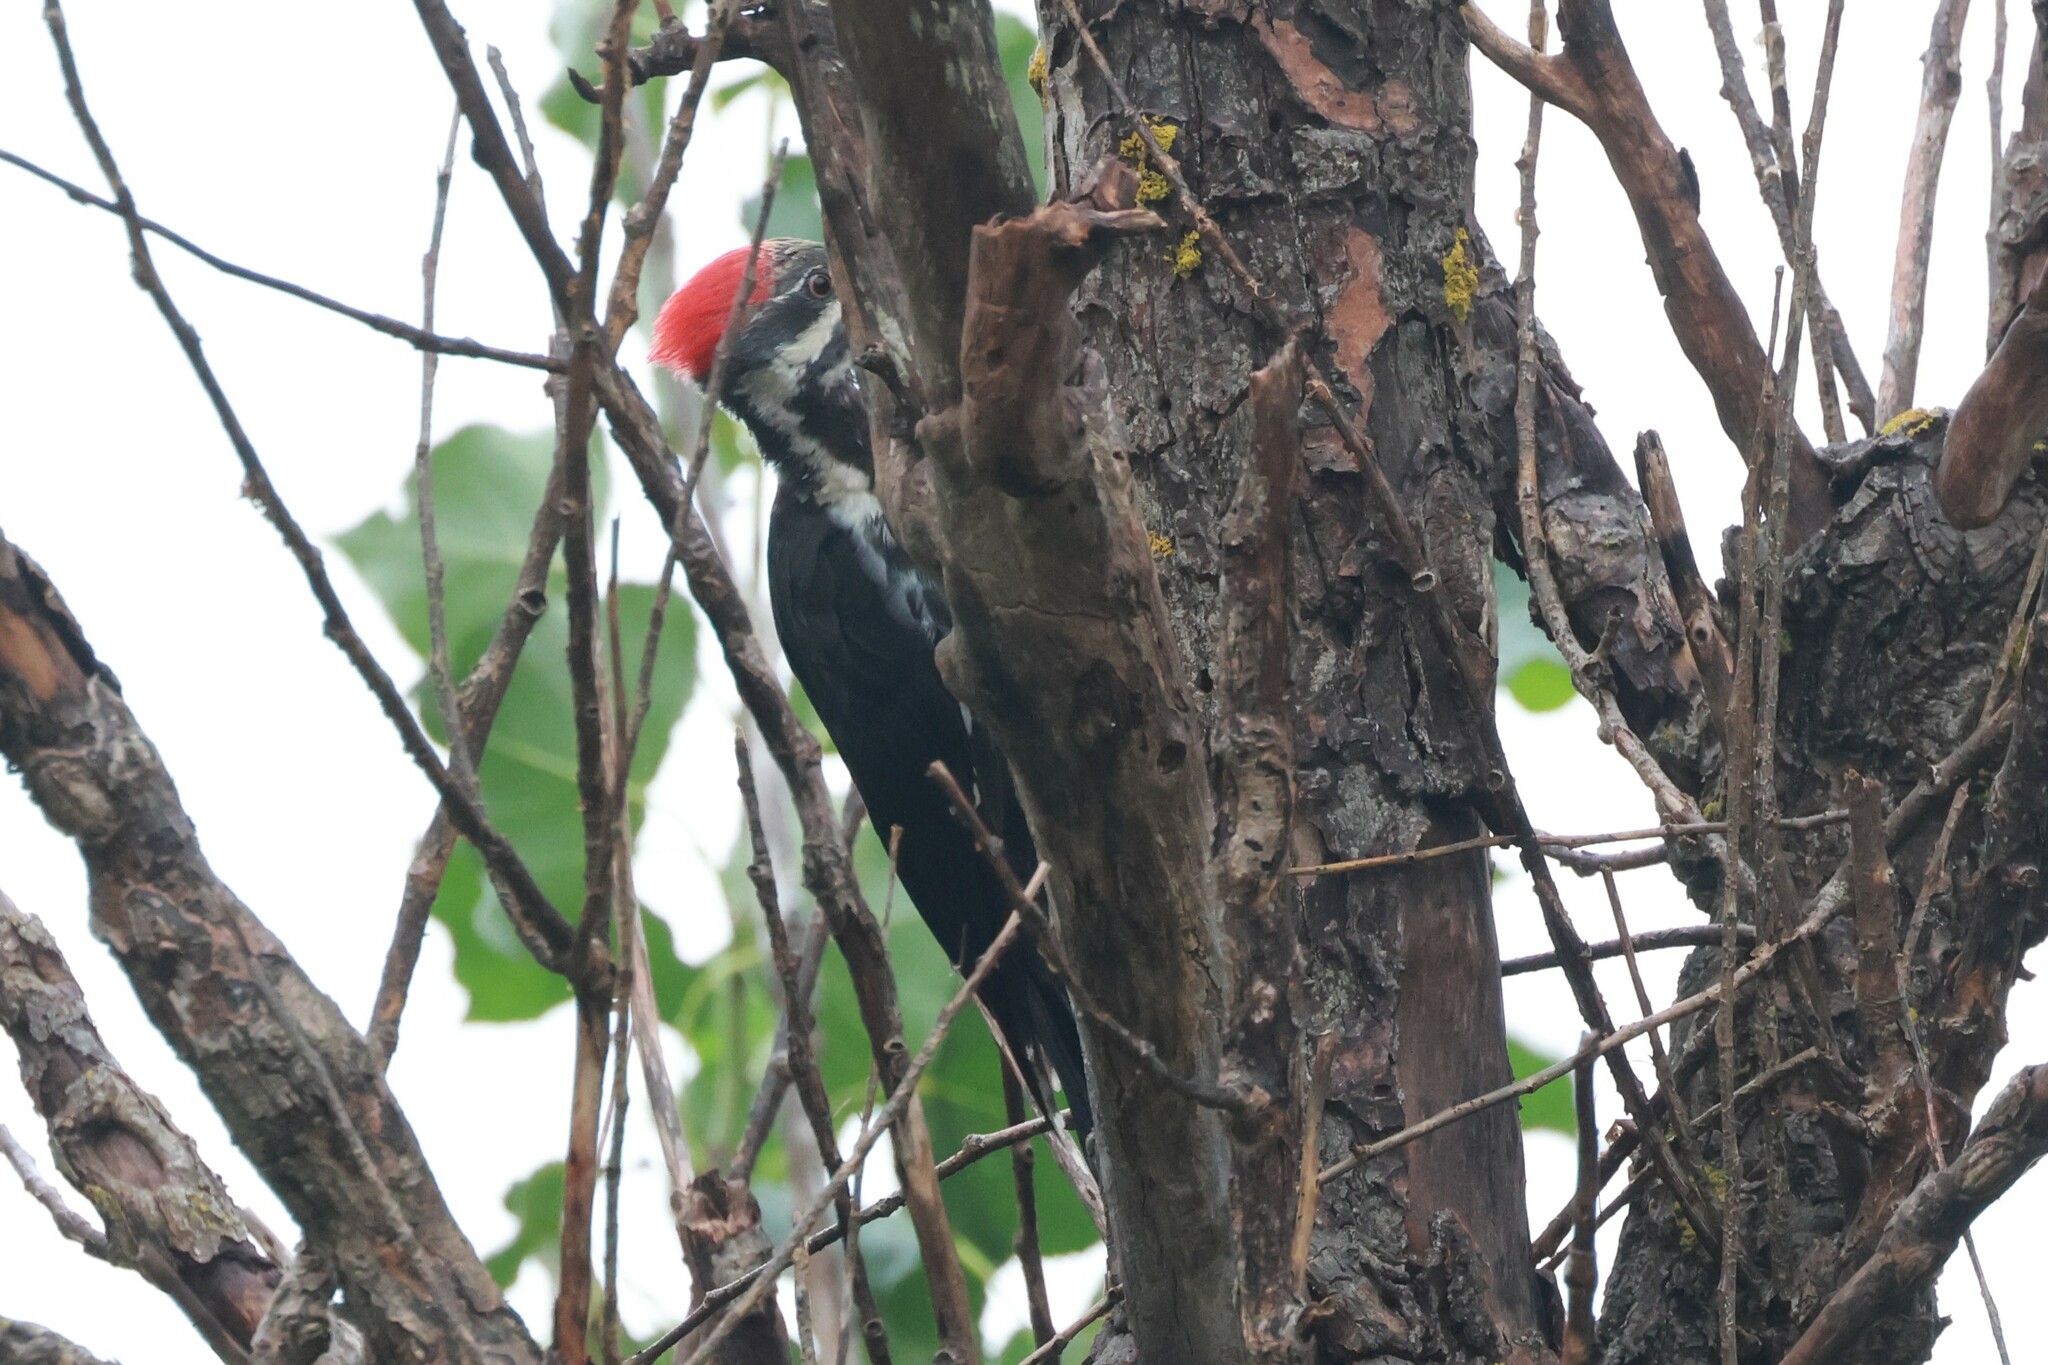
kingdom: Animalia
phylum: Chordata
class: Aves
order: Piciformes
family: Picidae
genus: Dryocopus
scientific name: Dryocopus pileatus
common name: Pileated woodpecker
